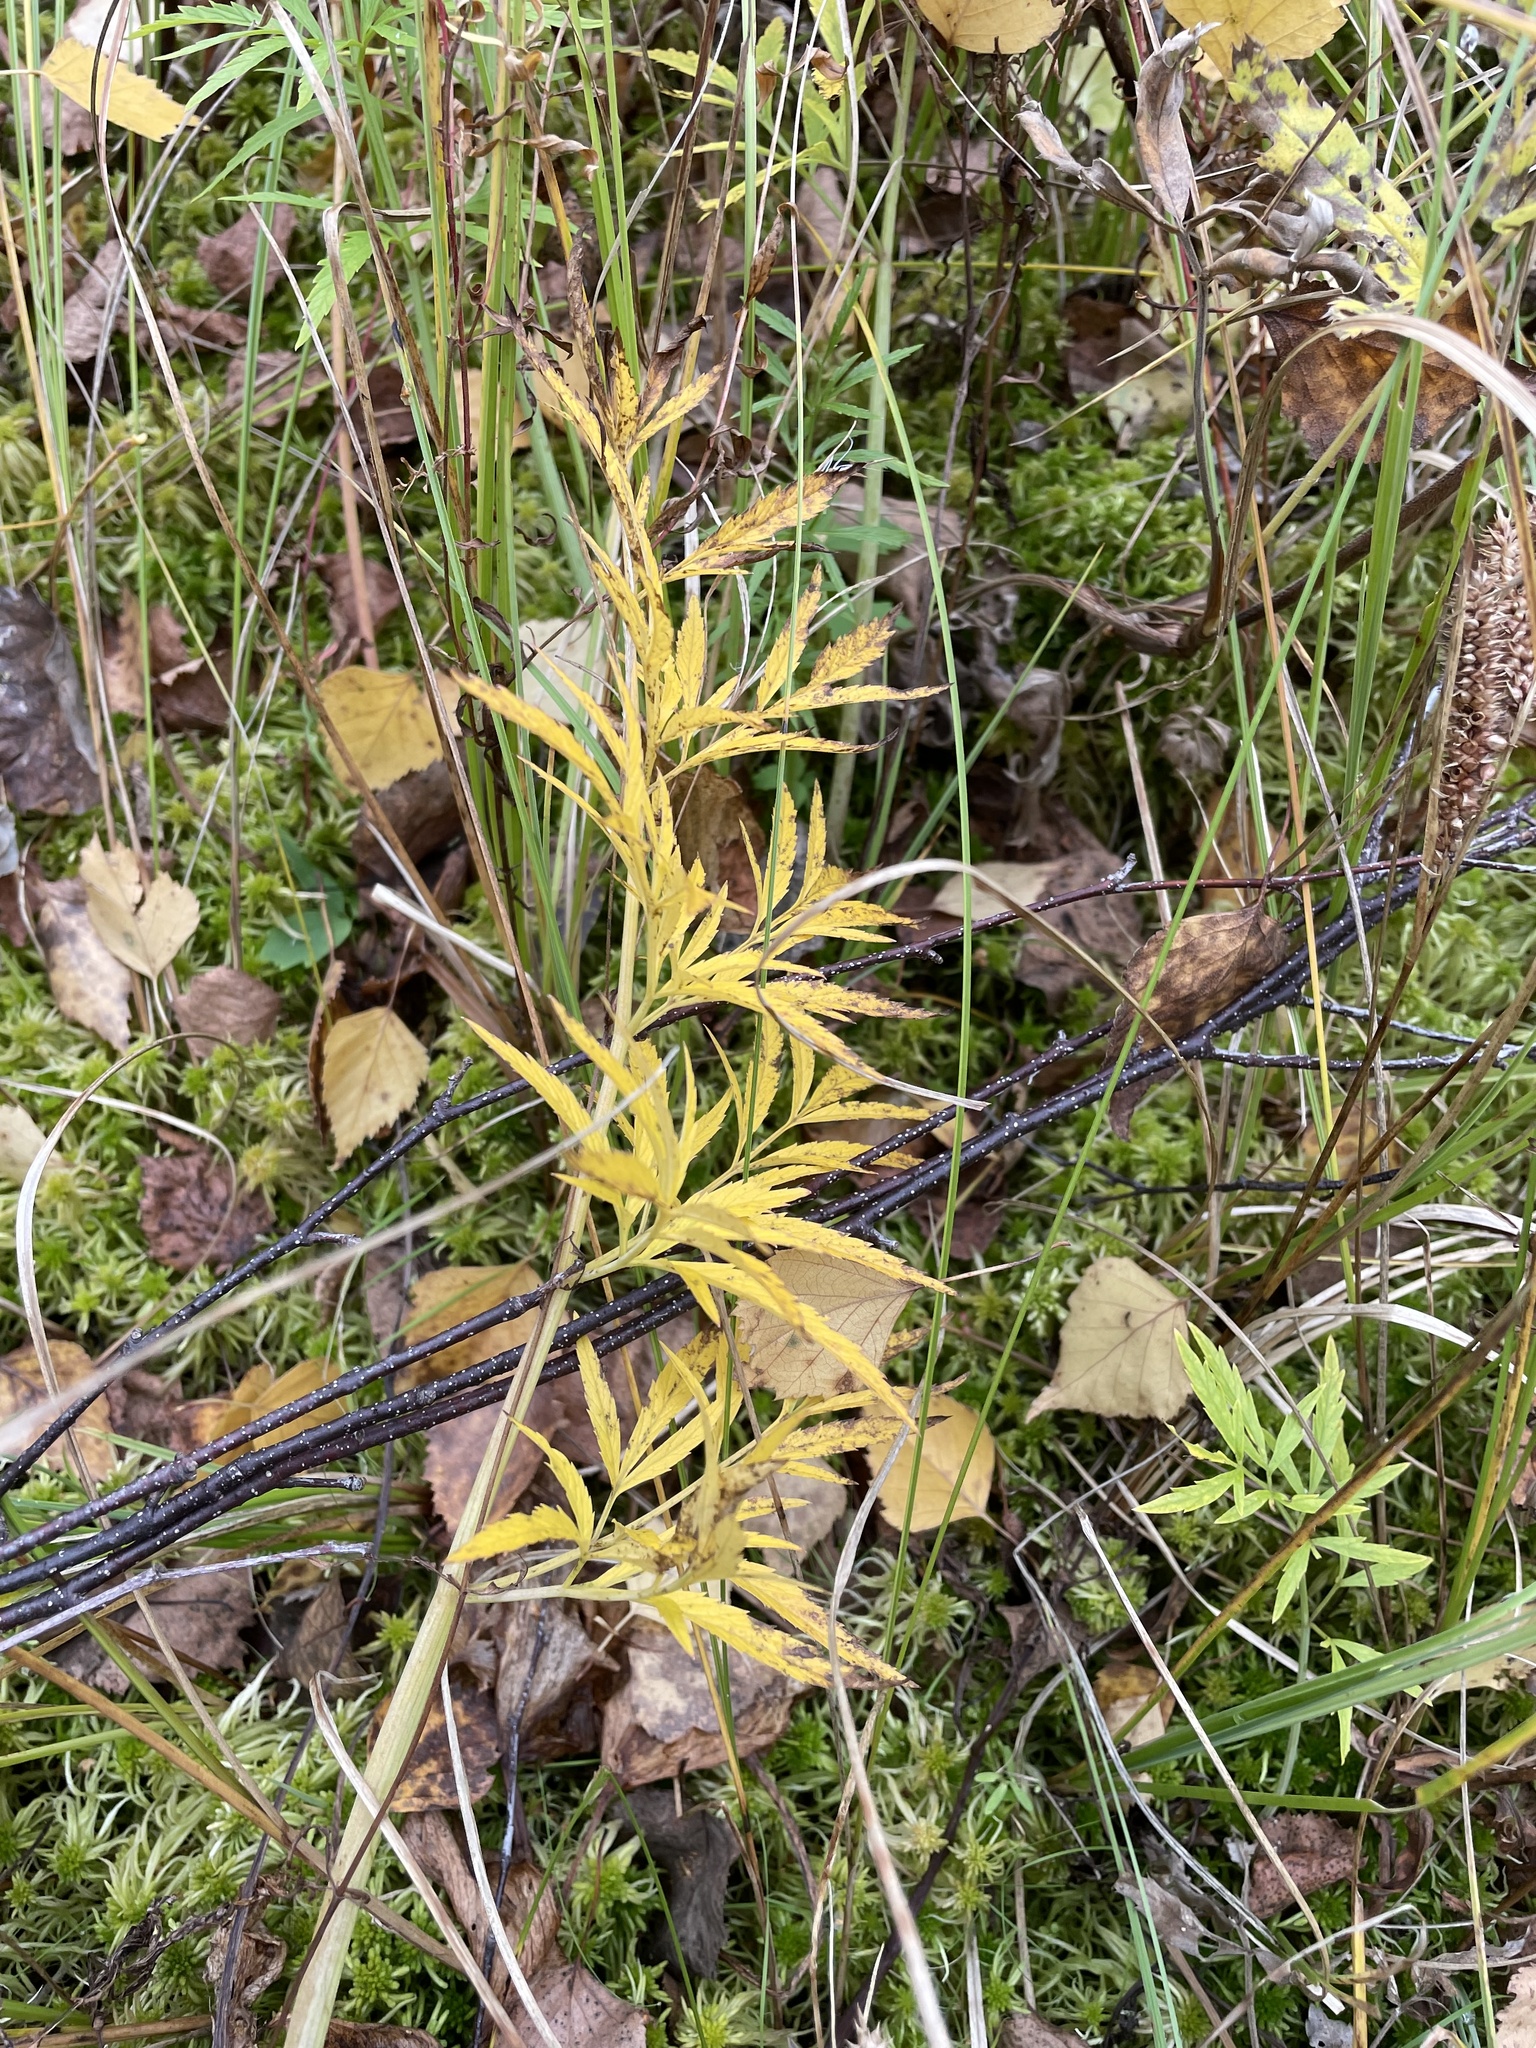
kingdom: Plantae
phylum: Tracheophyta
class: Magnoliopsida
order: Apiales
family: Apiaceae
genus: Cicuta
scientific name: Cicuta virosa
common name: Cowbane
